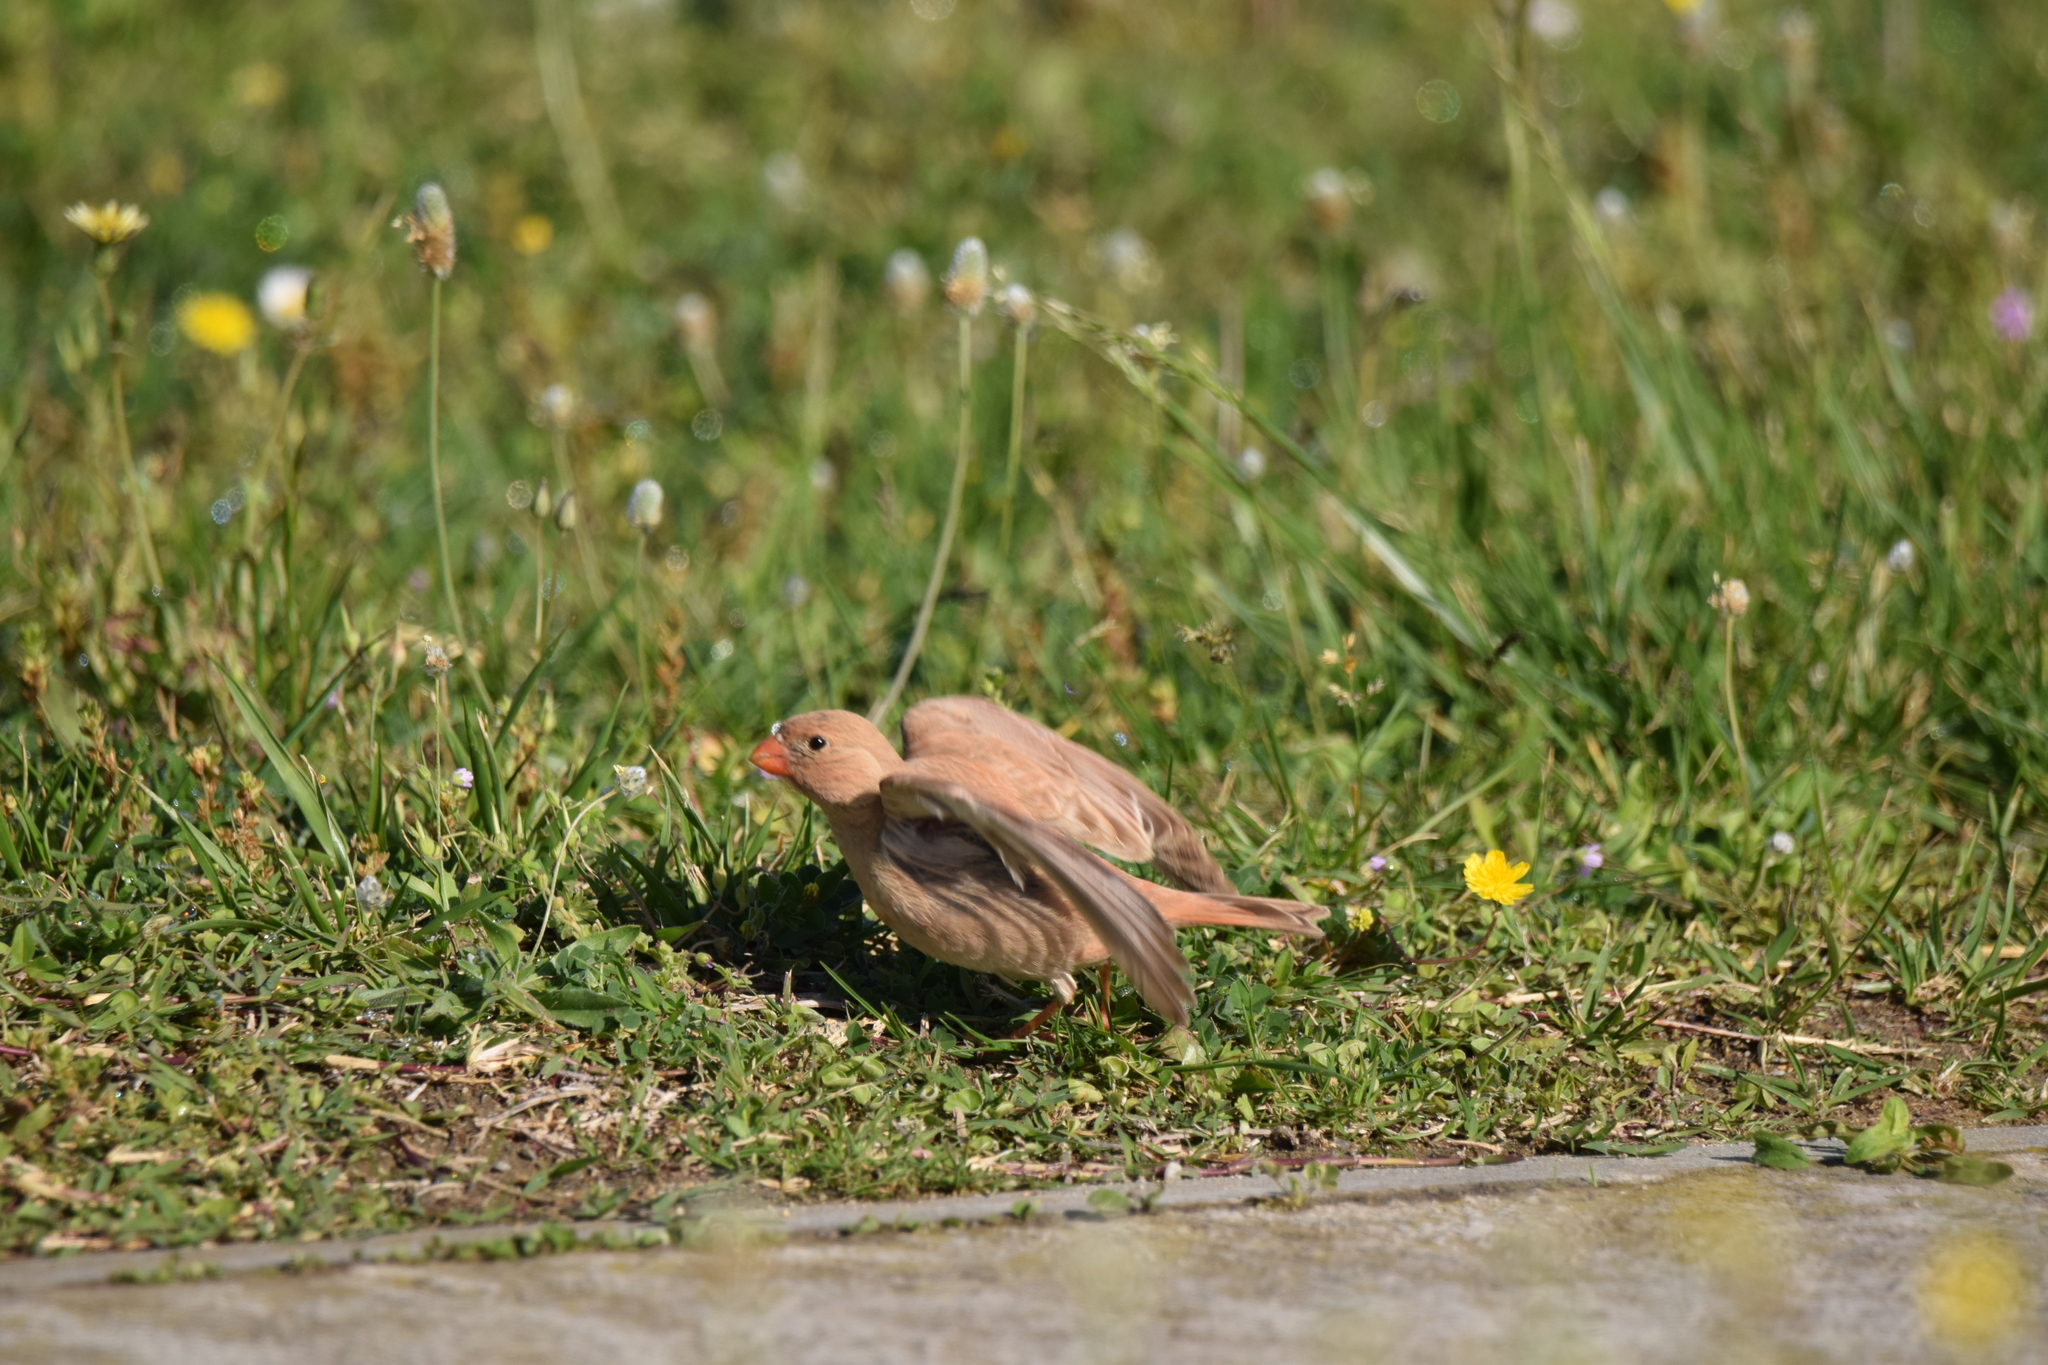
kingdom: Animalia
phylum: Chordata
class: Aves
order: Passeriformes
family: Fringillidae
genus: Bucanetes
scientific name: Bucanetes githagineus
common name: Trumpeter finch
